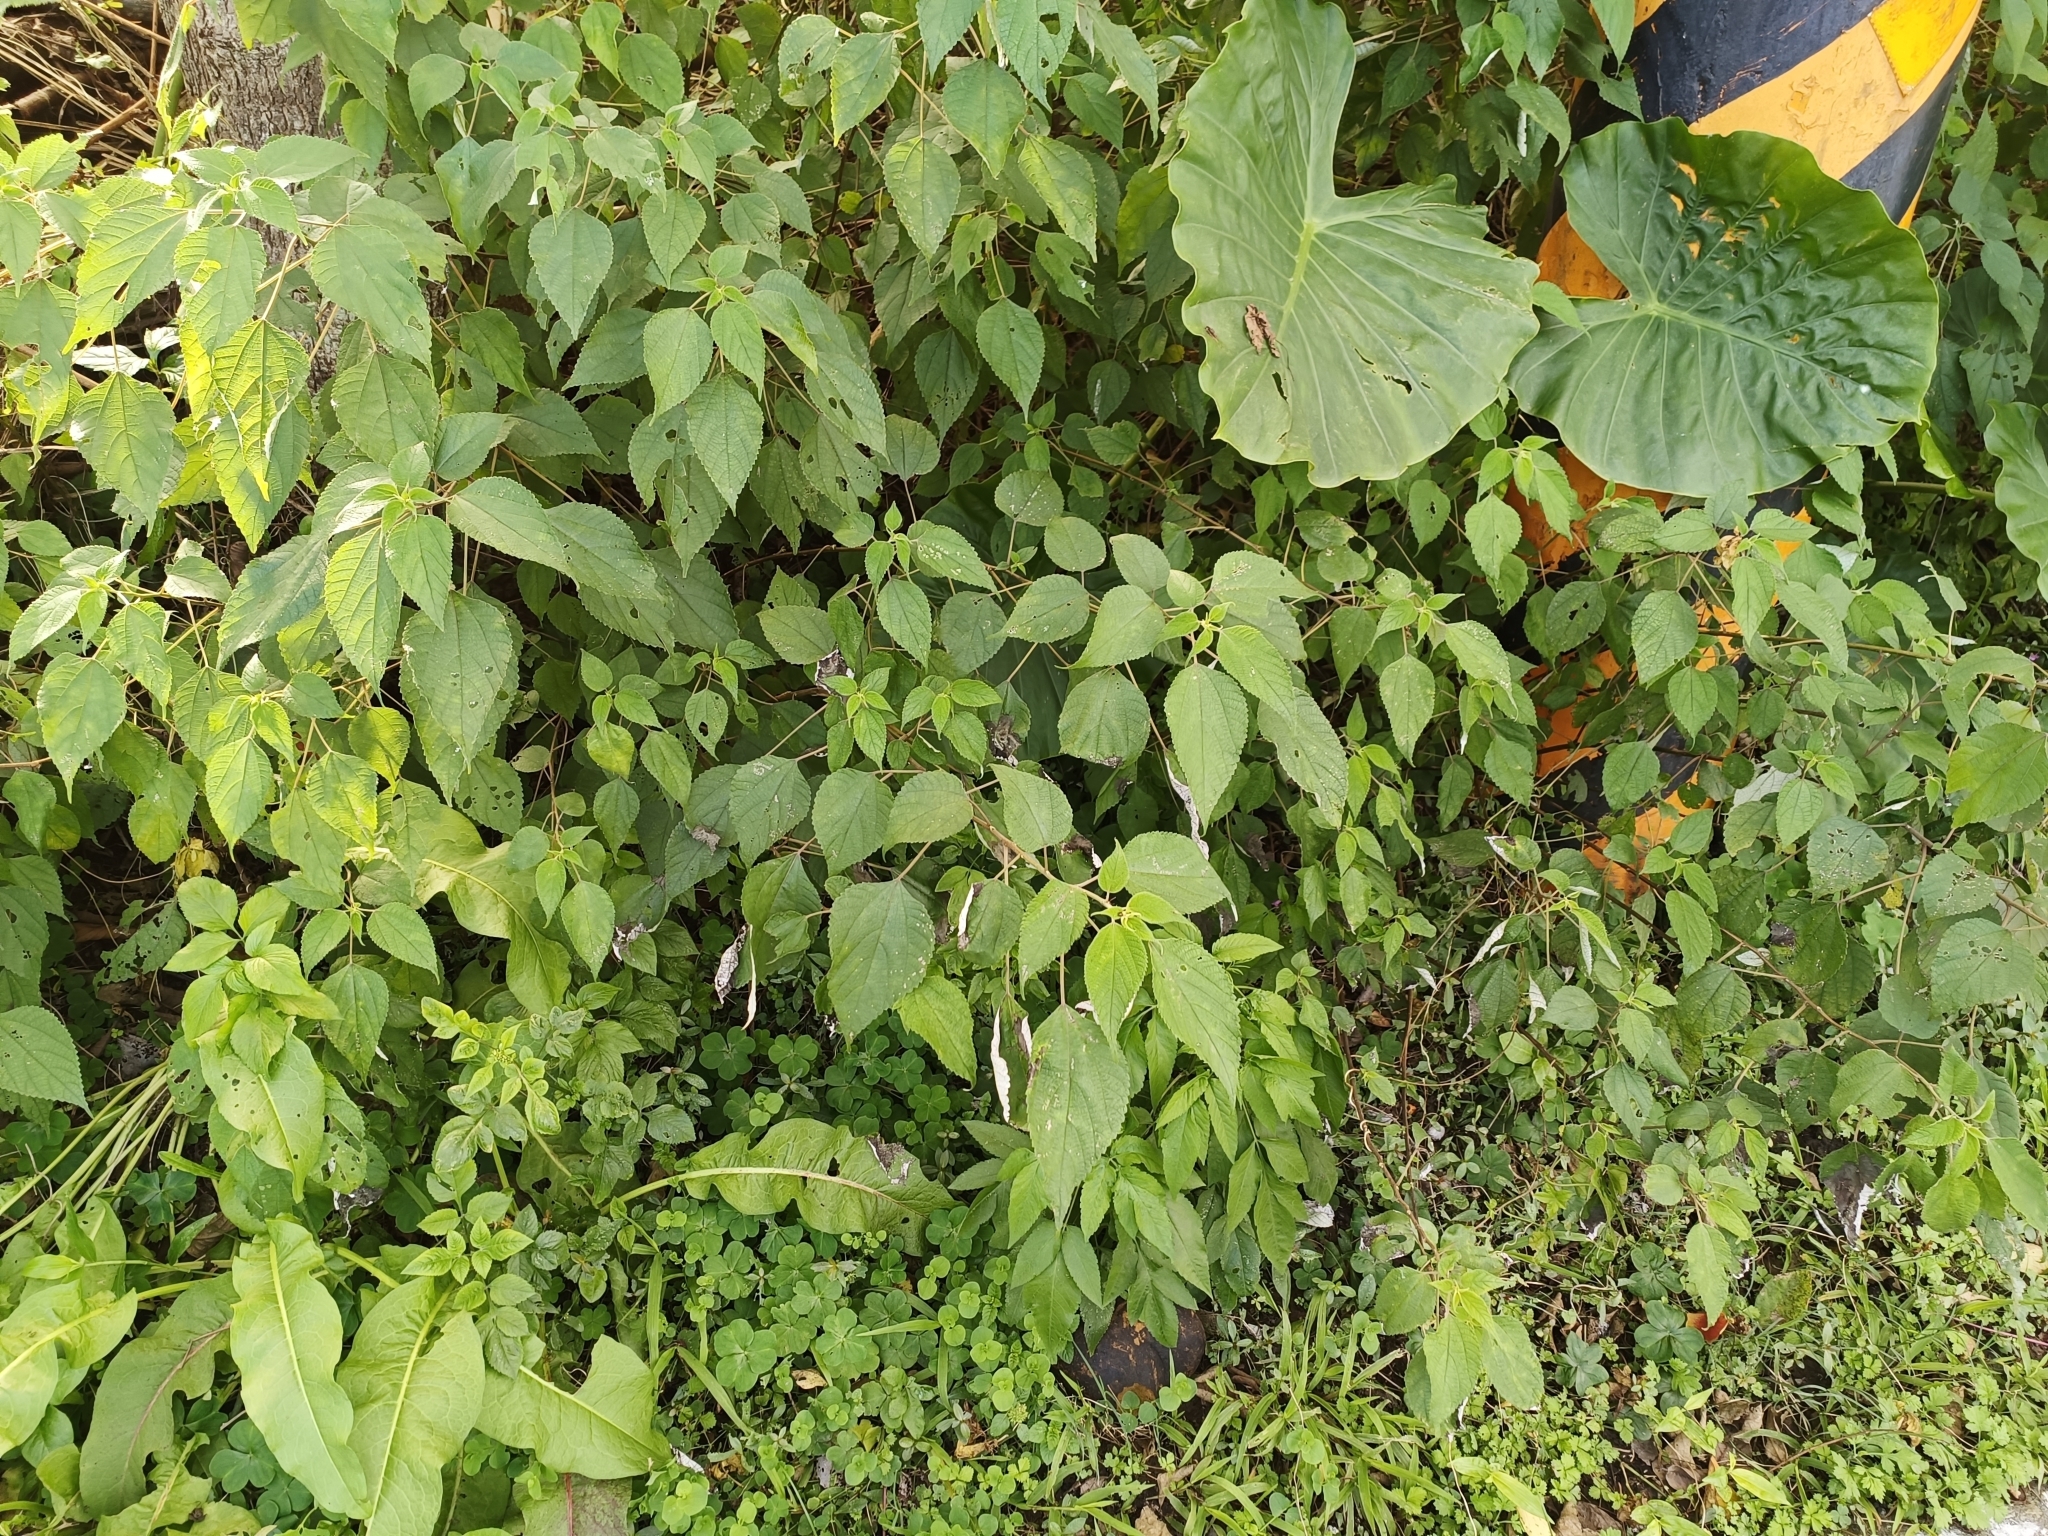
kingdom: Plantae
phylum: Tracheophyta
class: Magnoliopsida
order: Rosales
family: Urticaceae
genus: Boehmeria
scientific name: Boehmeria nivea
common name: Ramie chinese grass
